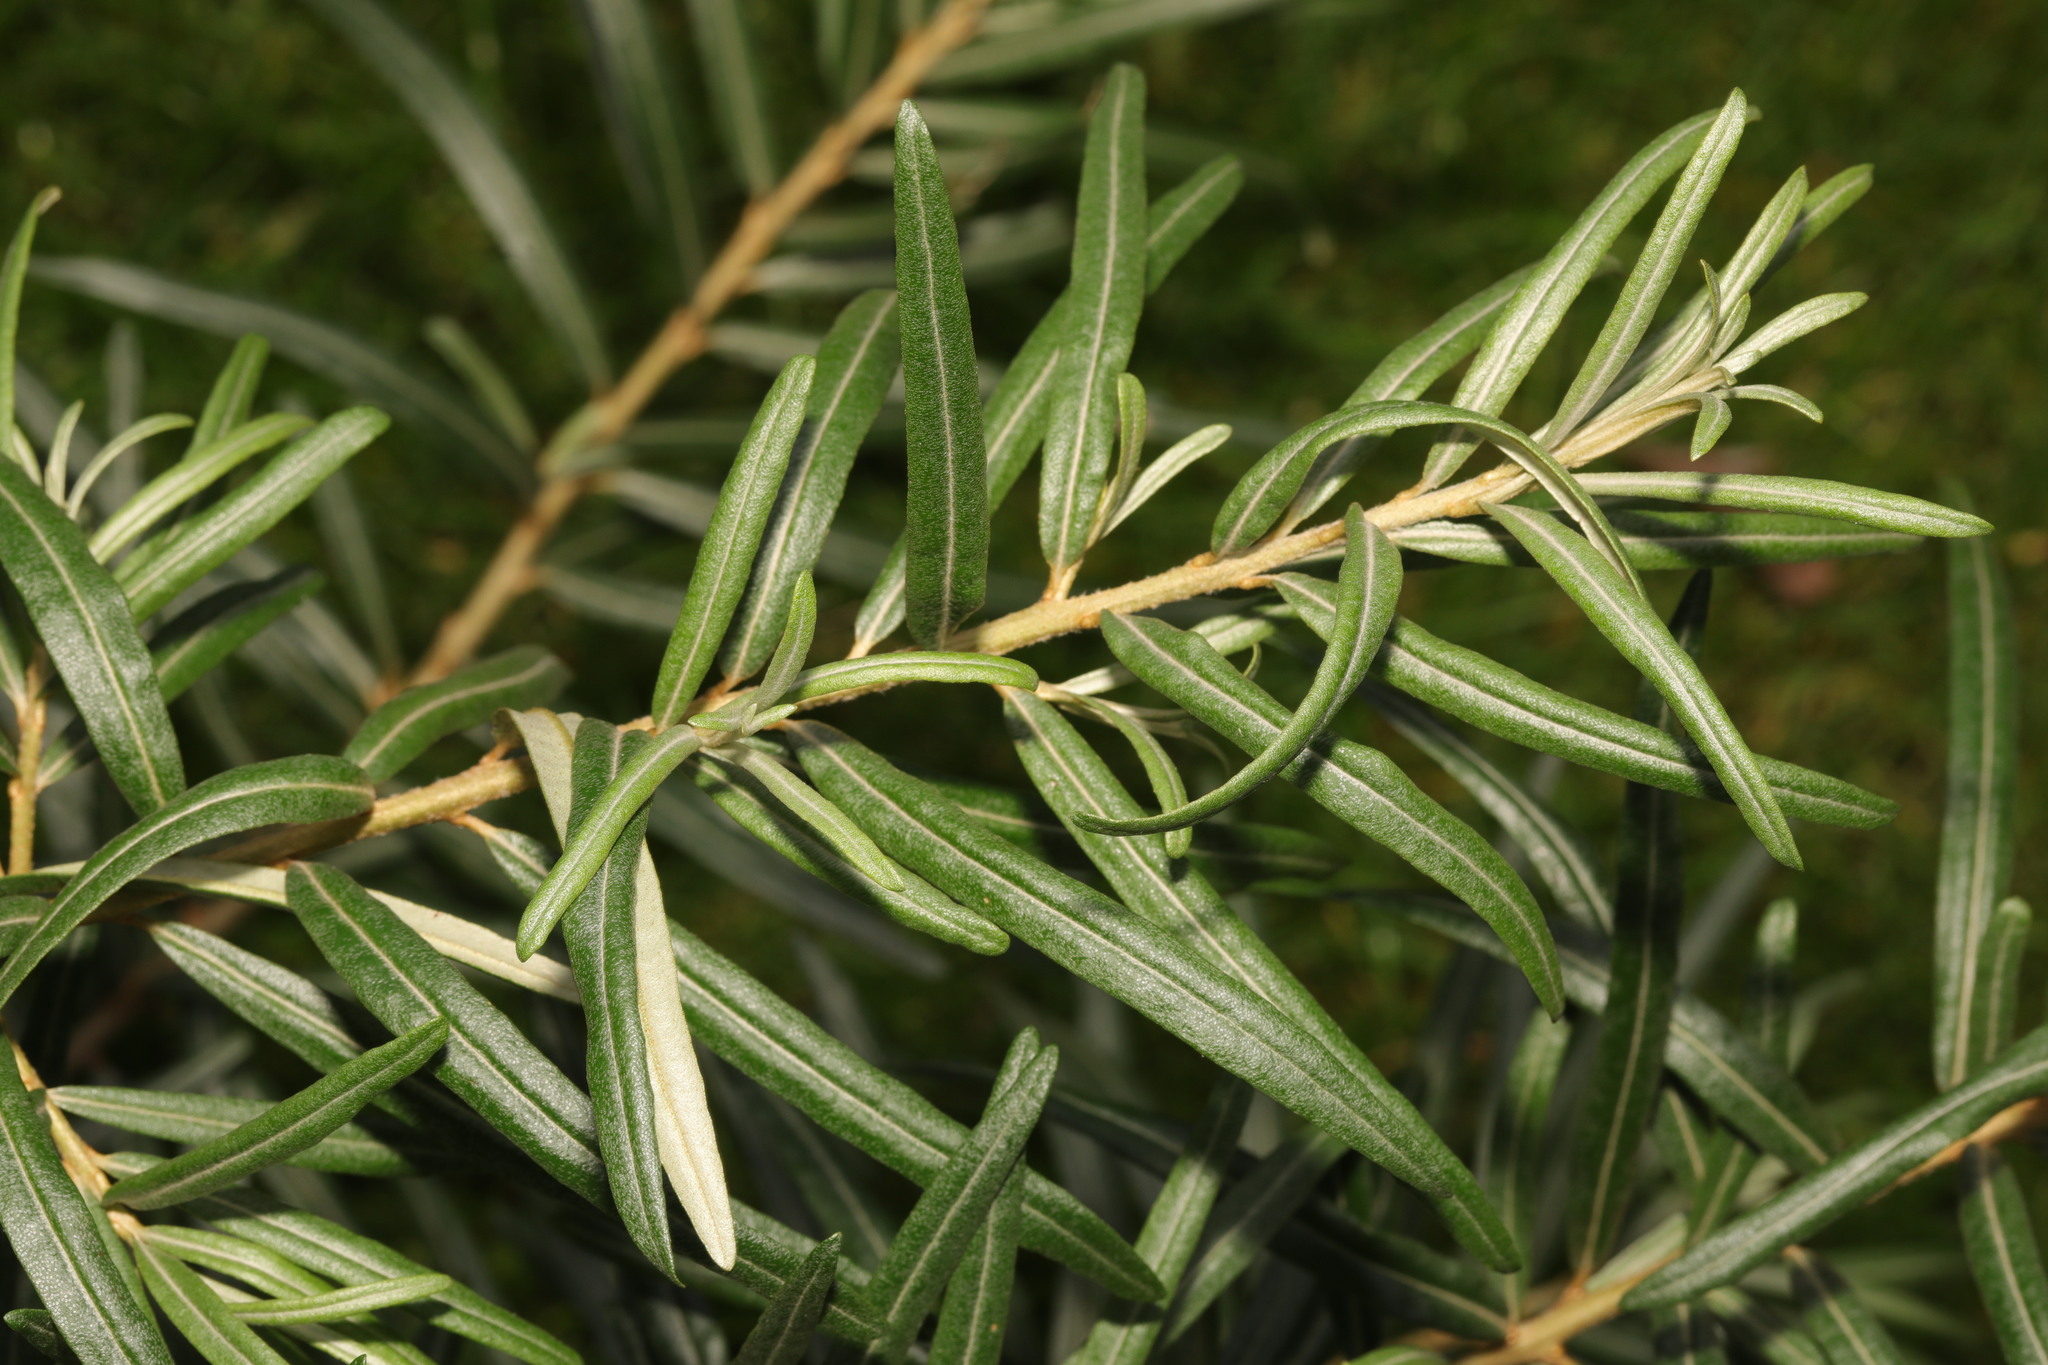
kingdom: Plantae
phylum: Tracheophyta
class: Magnoliopsida
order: Rosales
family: Elaeagnaceae
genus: Hippophae
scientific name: Hippophae rhamnoides
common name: Sea-buckthorn
